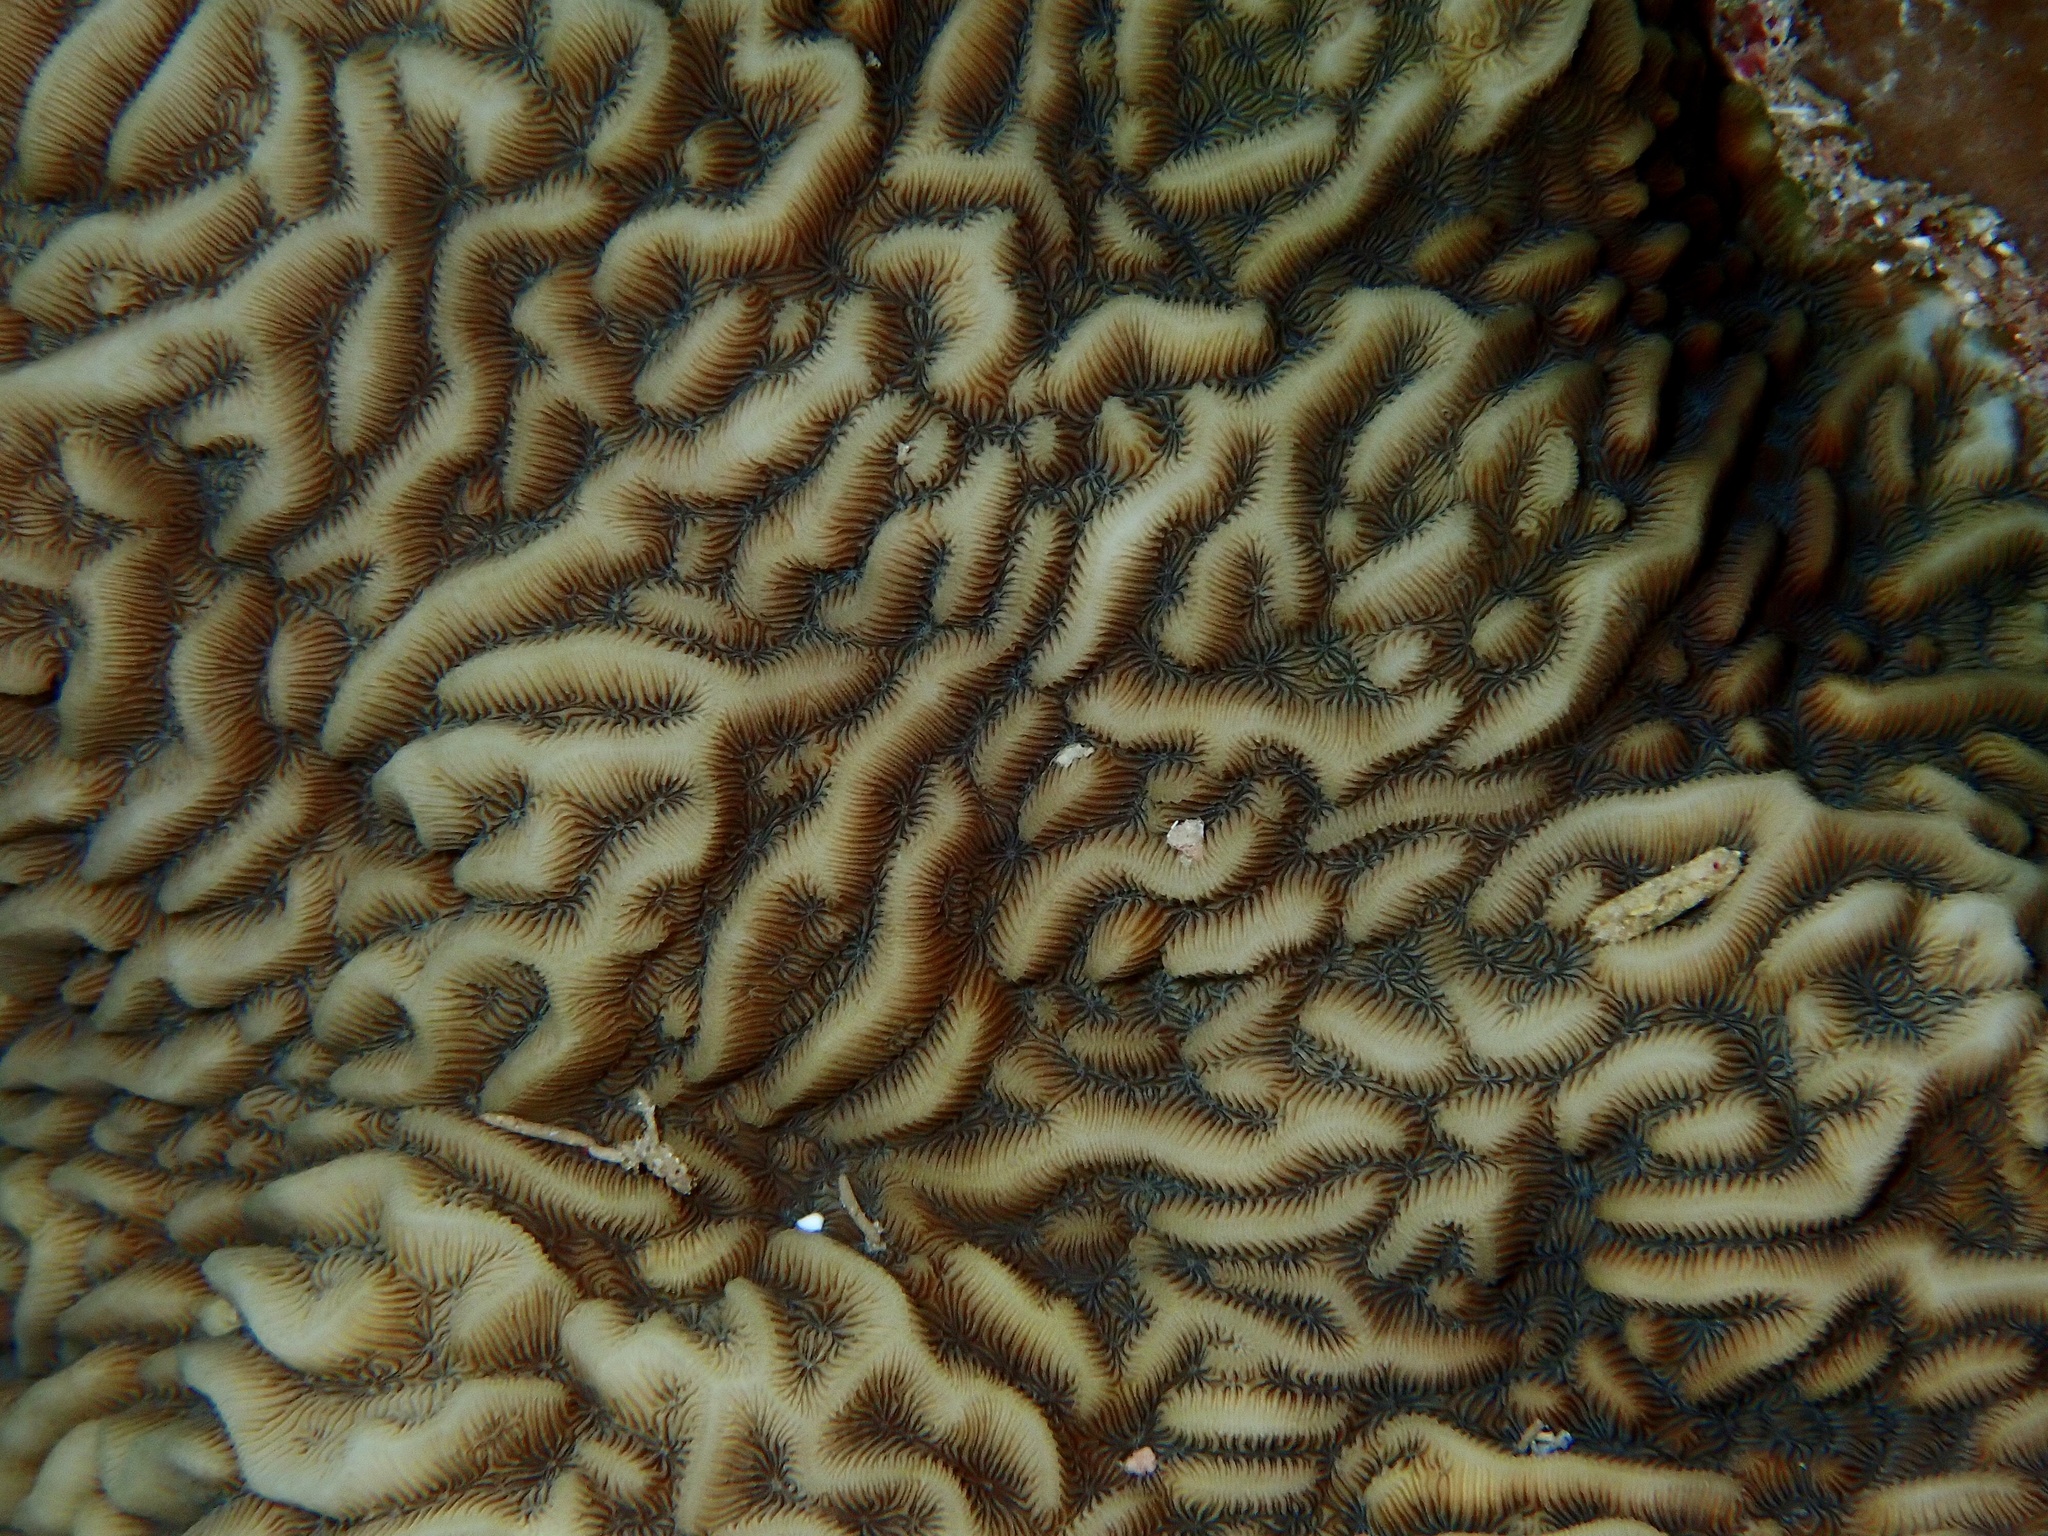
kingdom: Animalia
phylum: Cnidaria
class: Anthozoa
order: Scleractinia
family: Agariciidae
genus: Pavona
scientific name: Pavona varians
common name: Leaf coral
